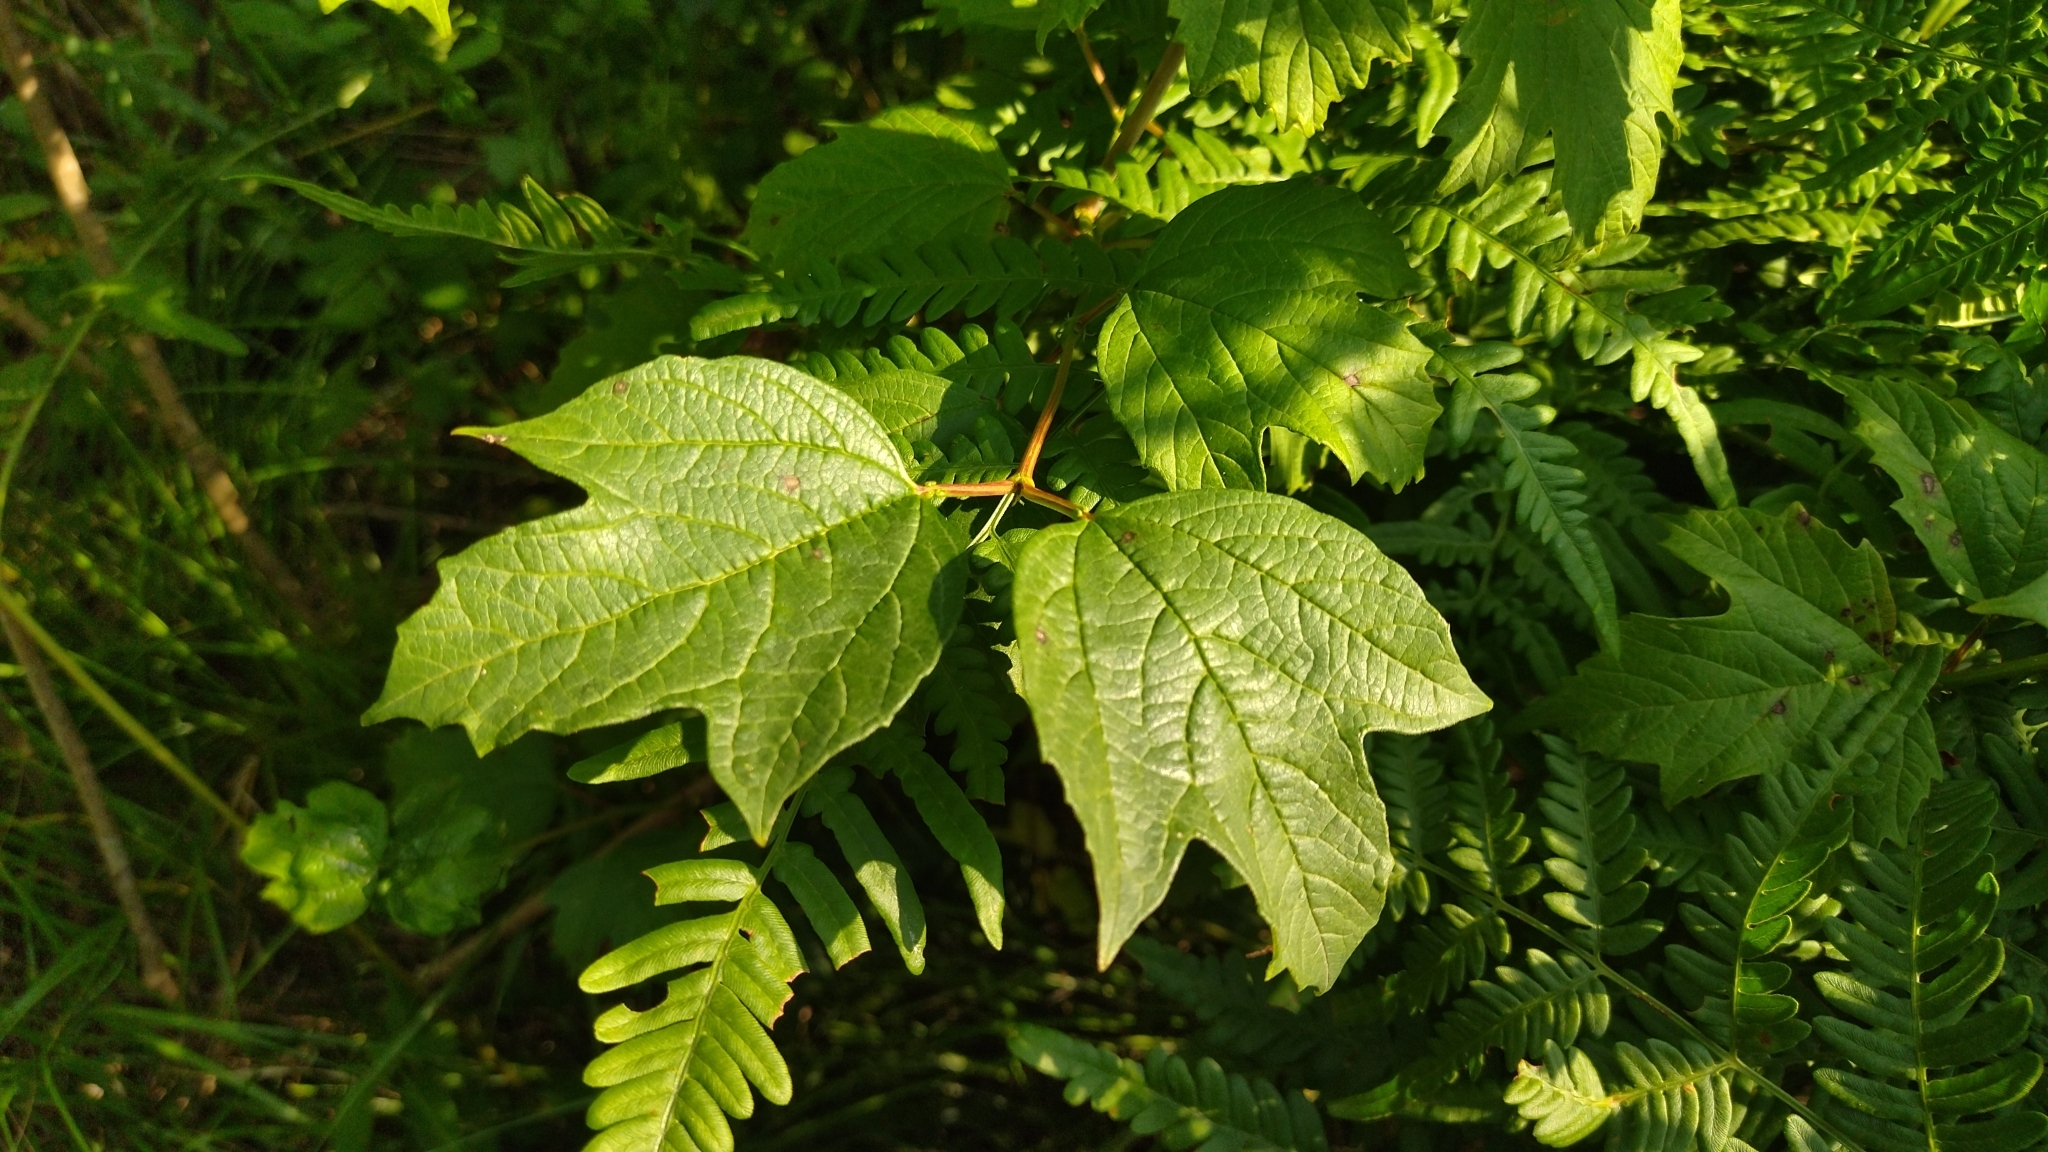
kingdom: Plantae
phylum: Tracheophyta
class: Magnoliopsida
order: Dipsacales
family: Viburnaceae
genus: Viburnum
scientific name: Viburnum opulus
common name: Guelder-rose
